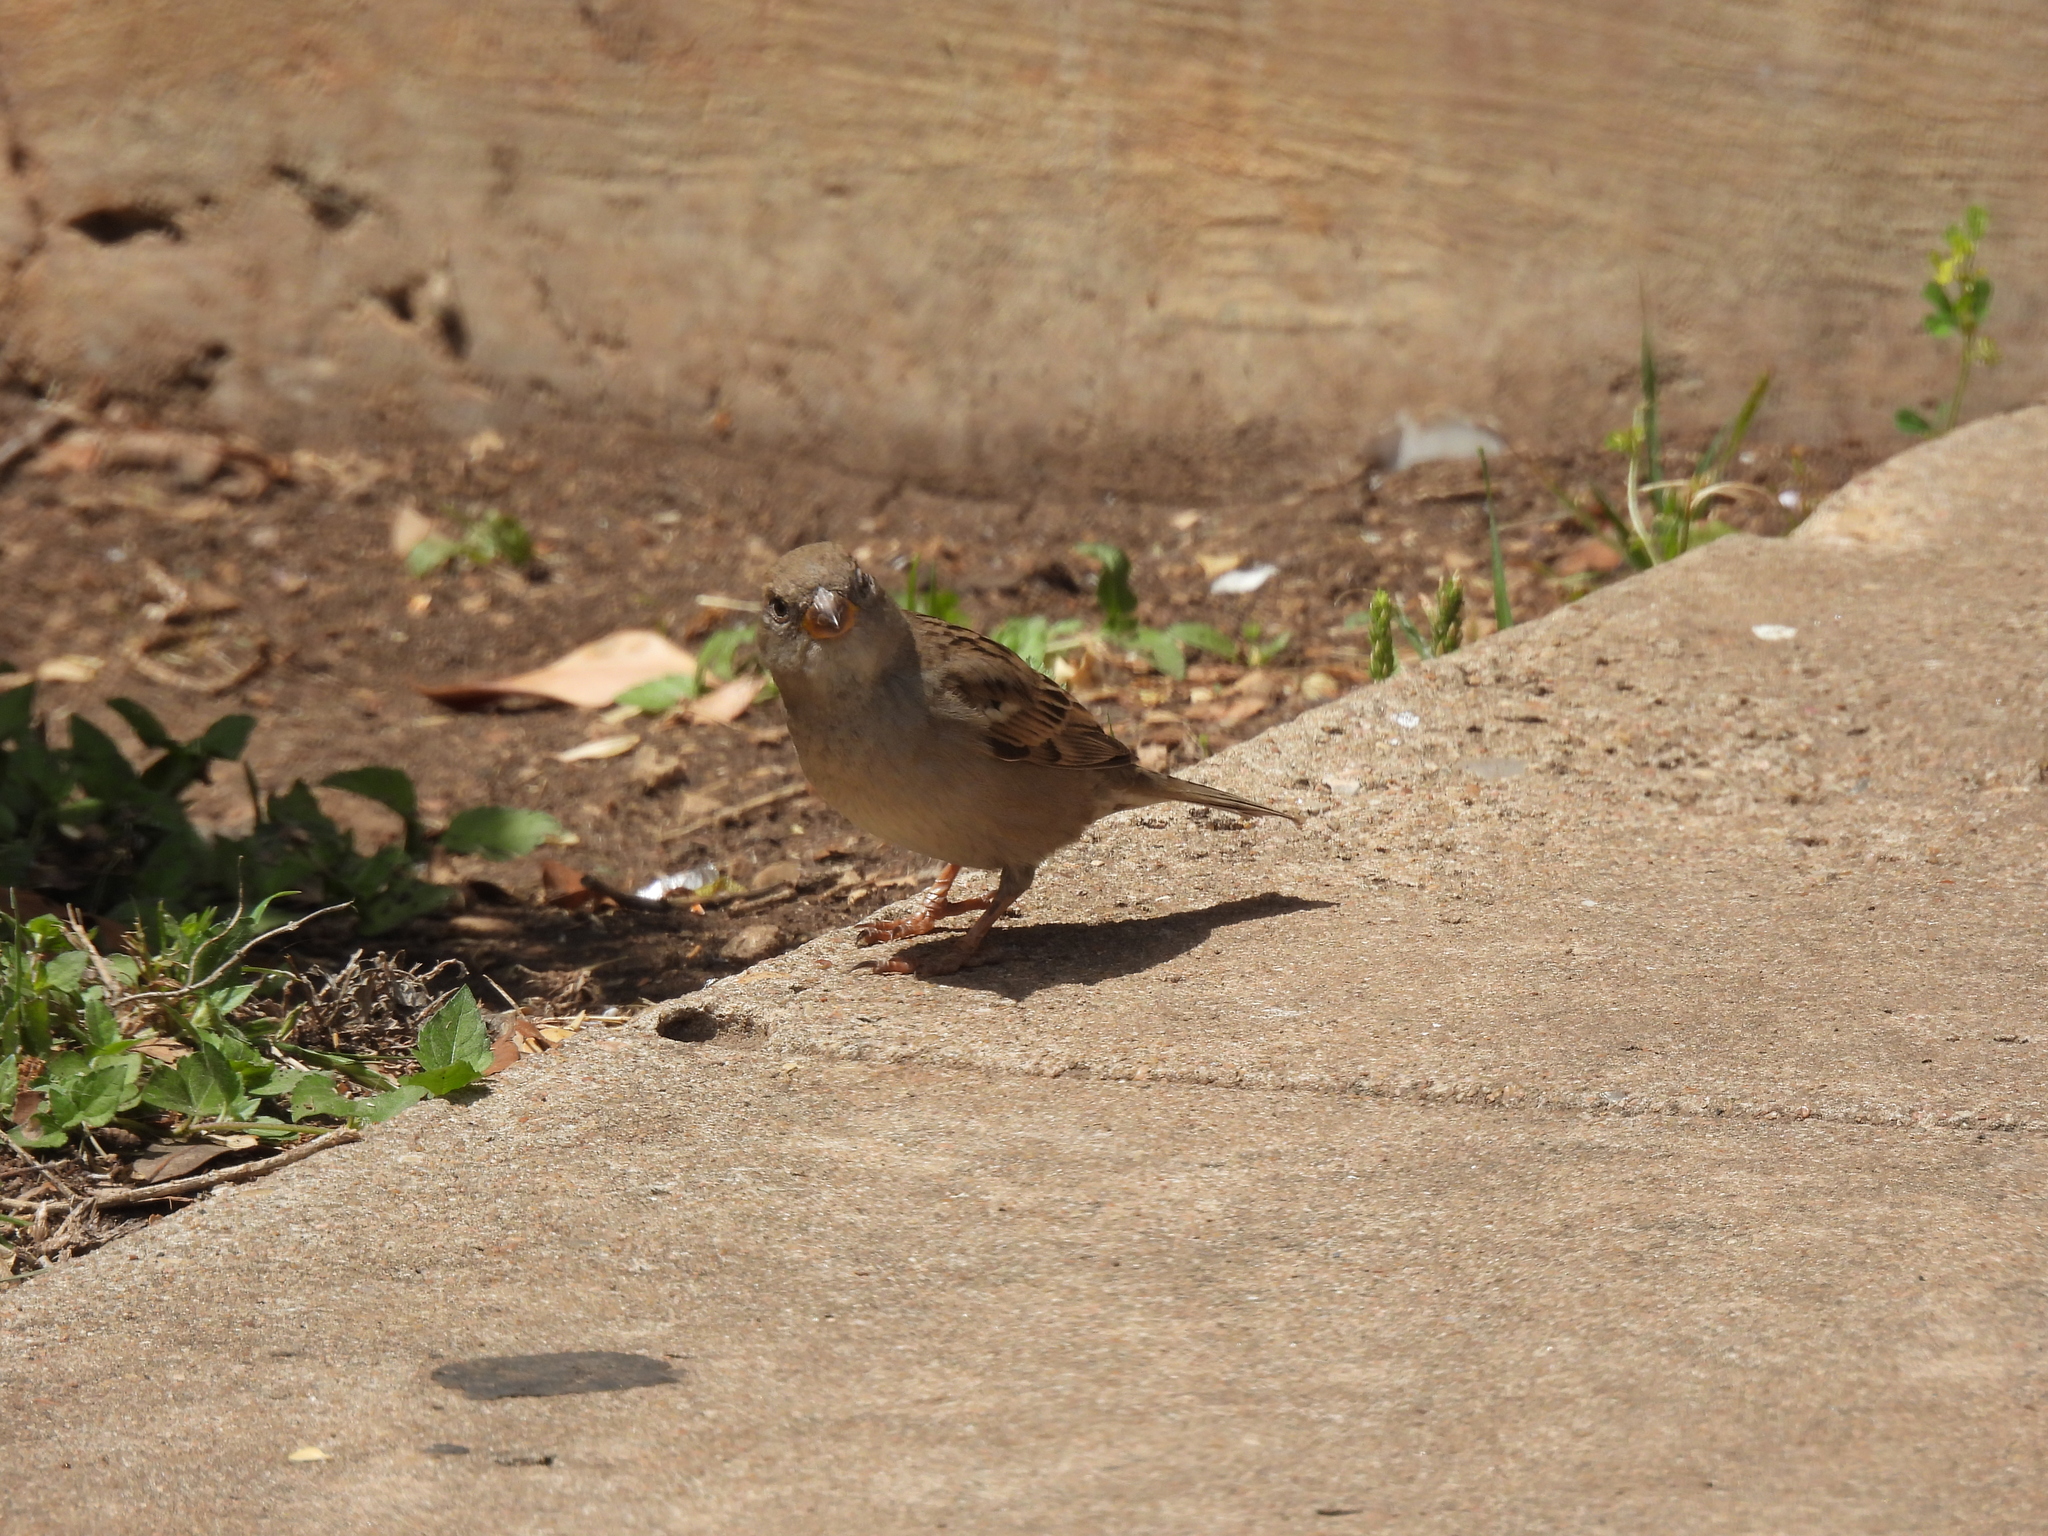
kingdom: Animalia
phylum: Chordata
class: Aves
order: Passeriformes
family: Passeridae
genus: Passer
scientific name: Passer domesticus
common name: House sparrow
